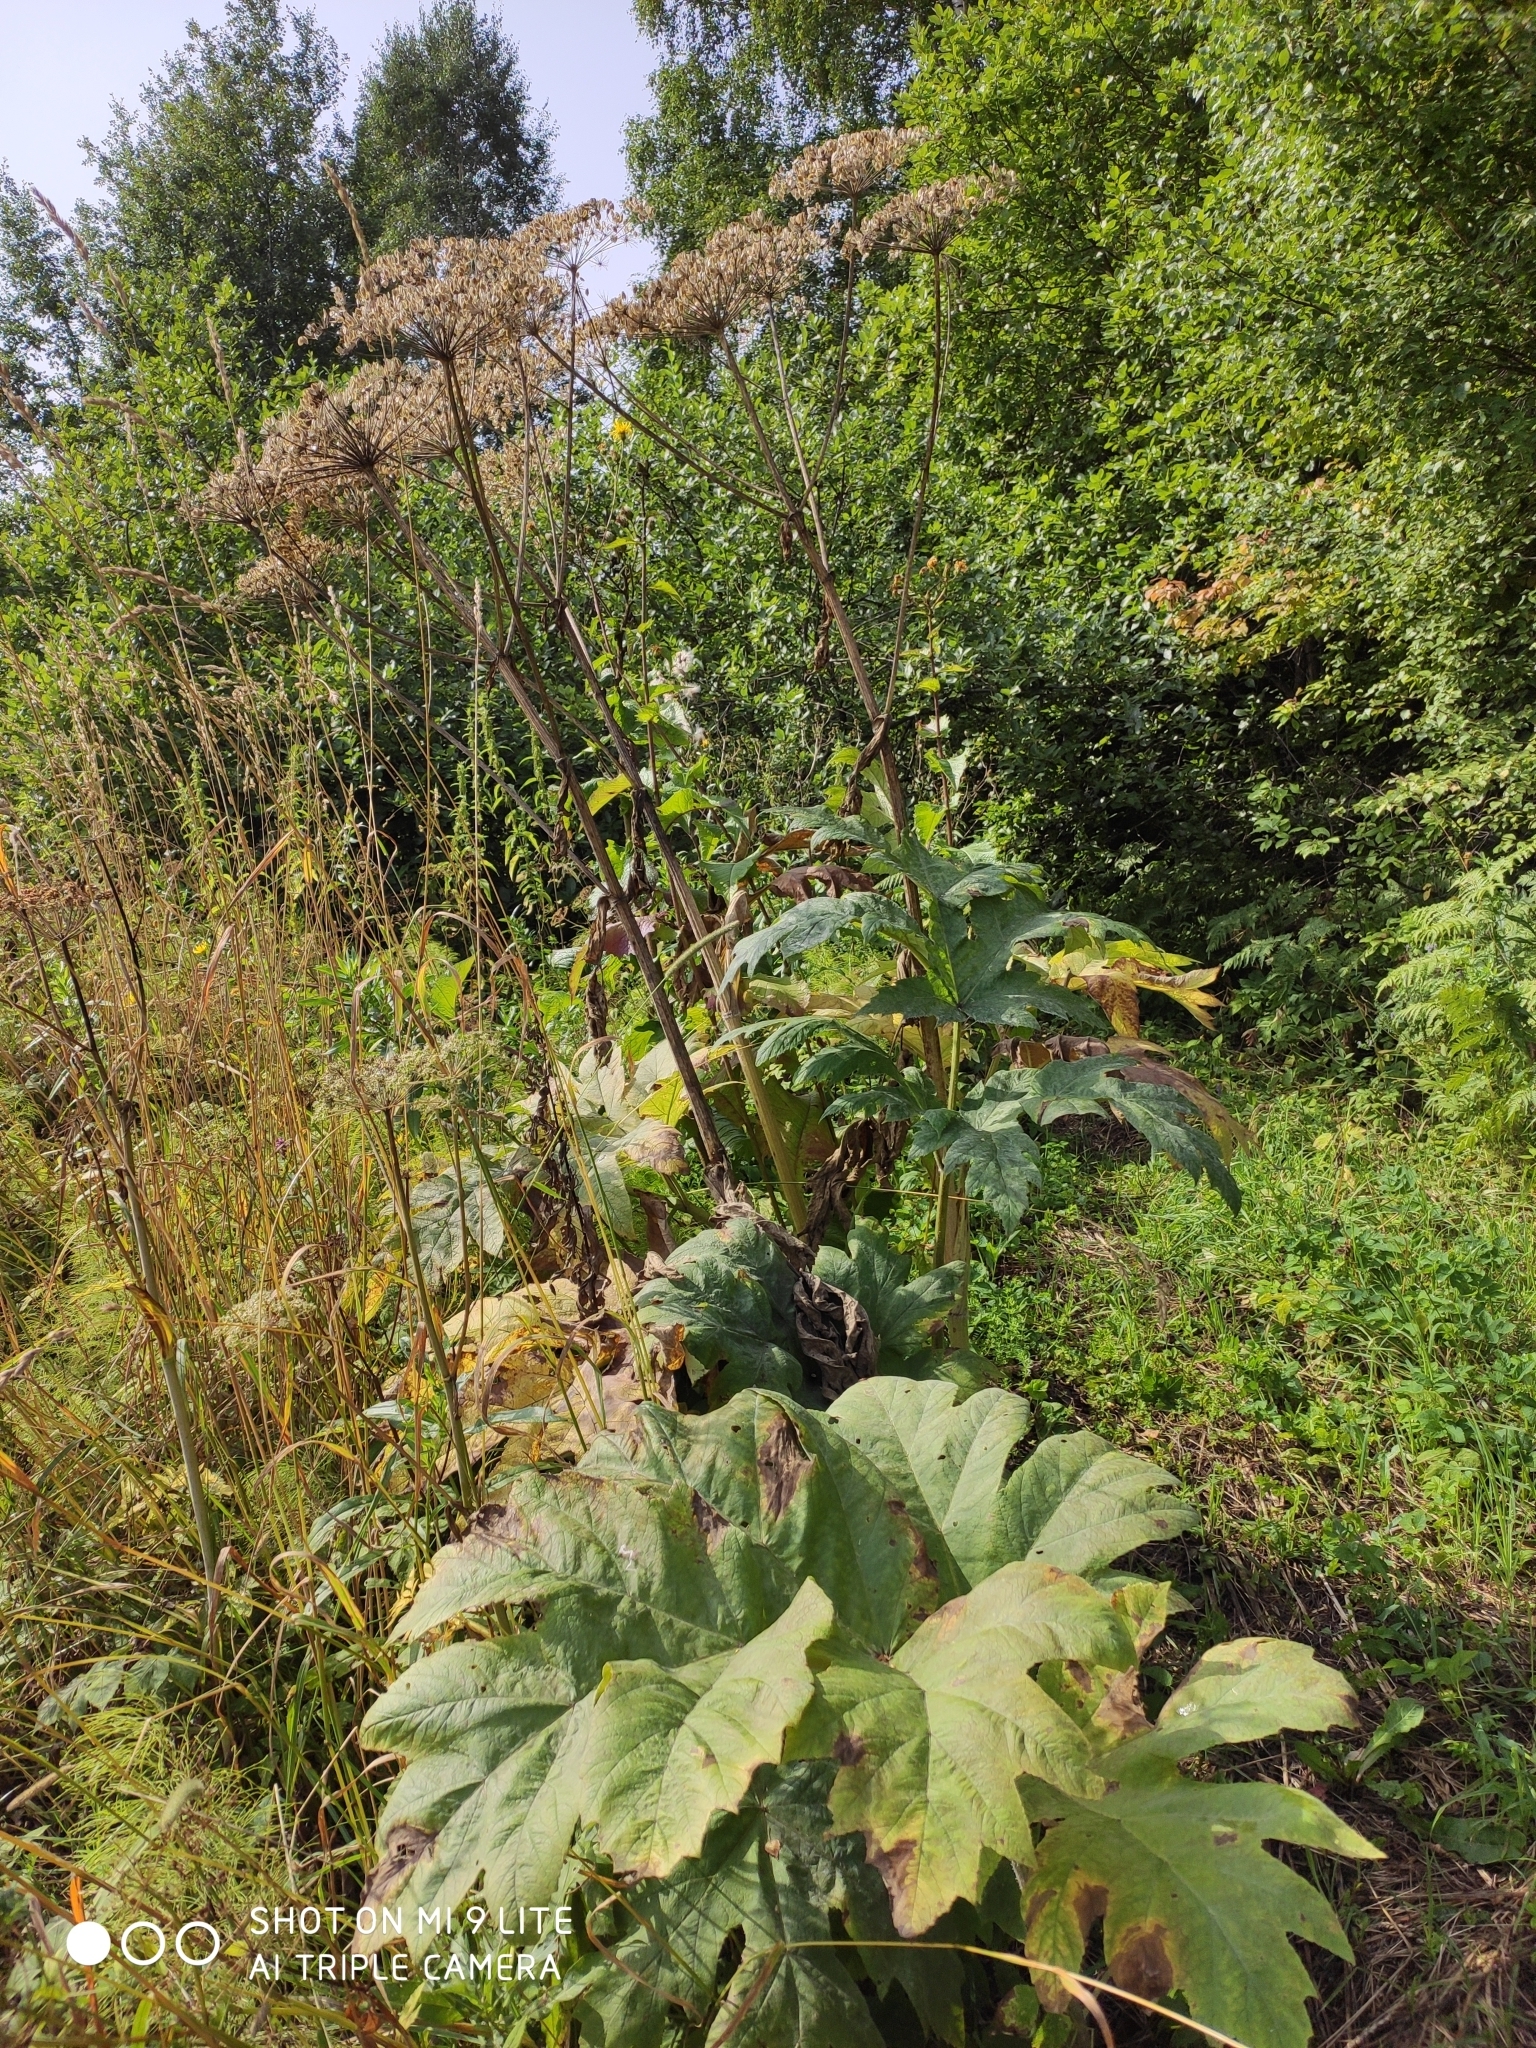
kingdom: Plantae
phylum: Tracheophyta
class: Magnoliopsida
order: Apiales
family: Apiaceae
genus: Heracleum
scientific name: Heracleum dissectum
